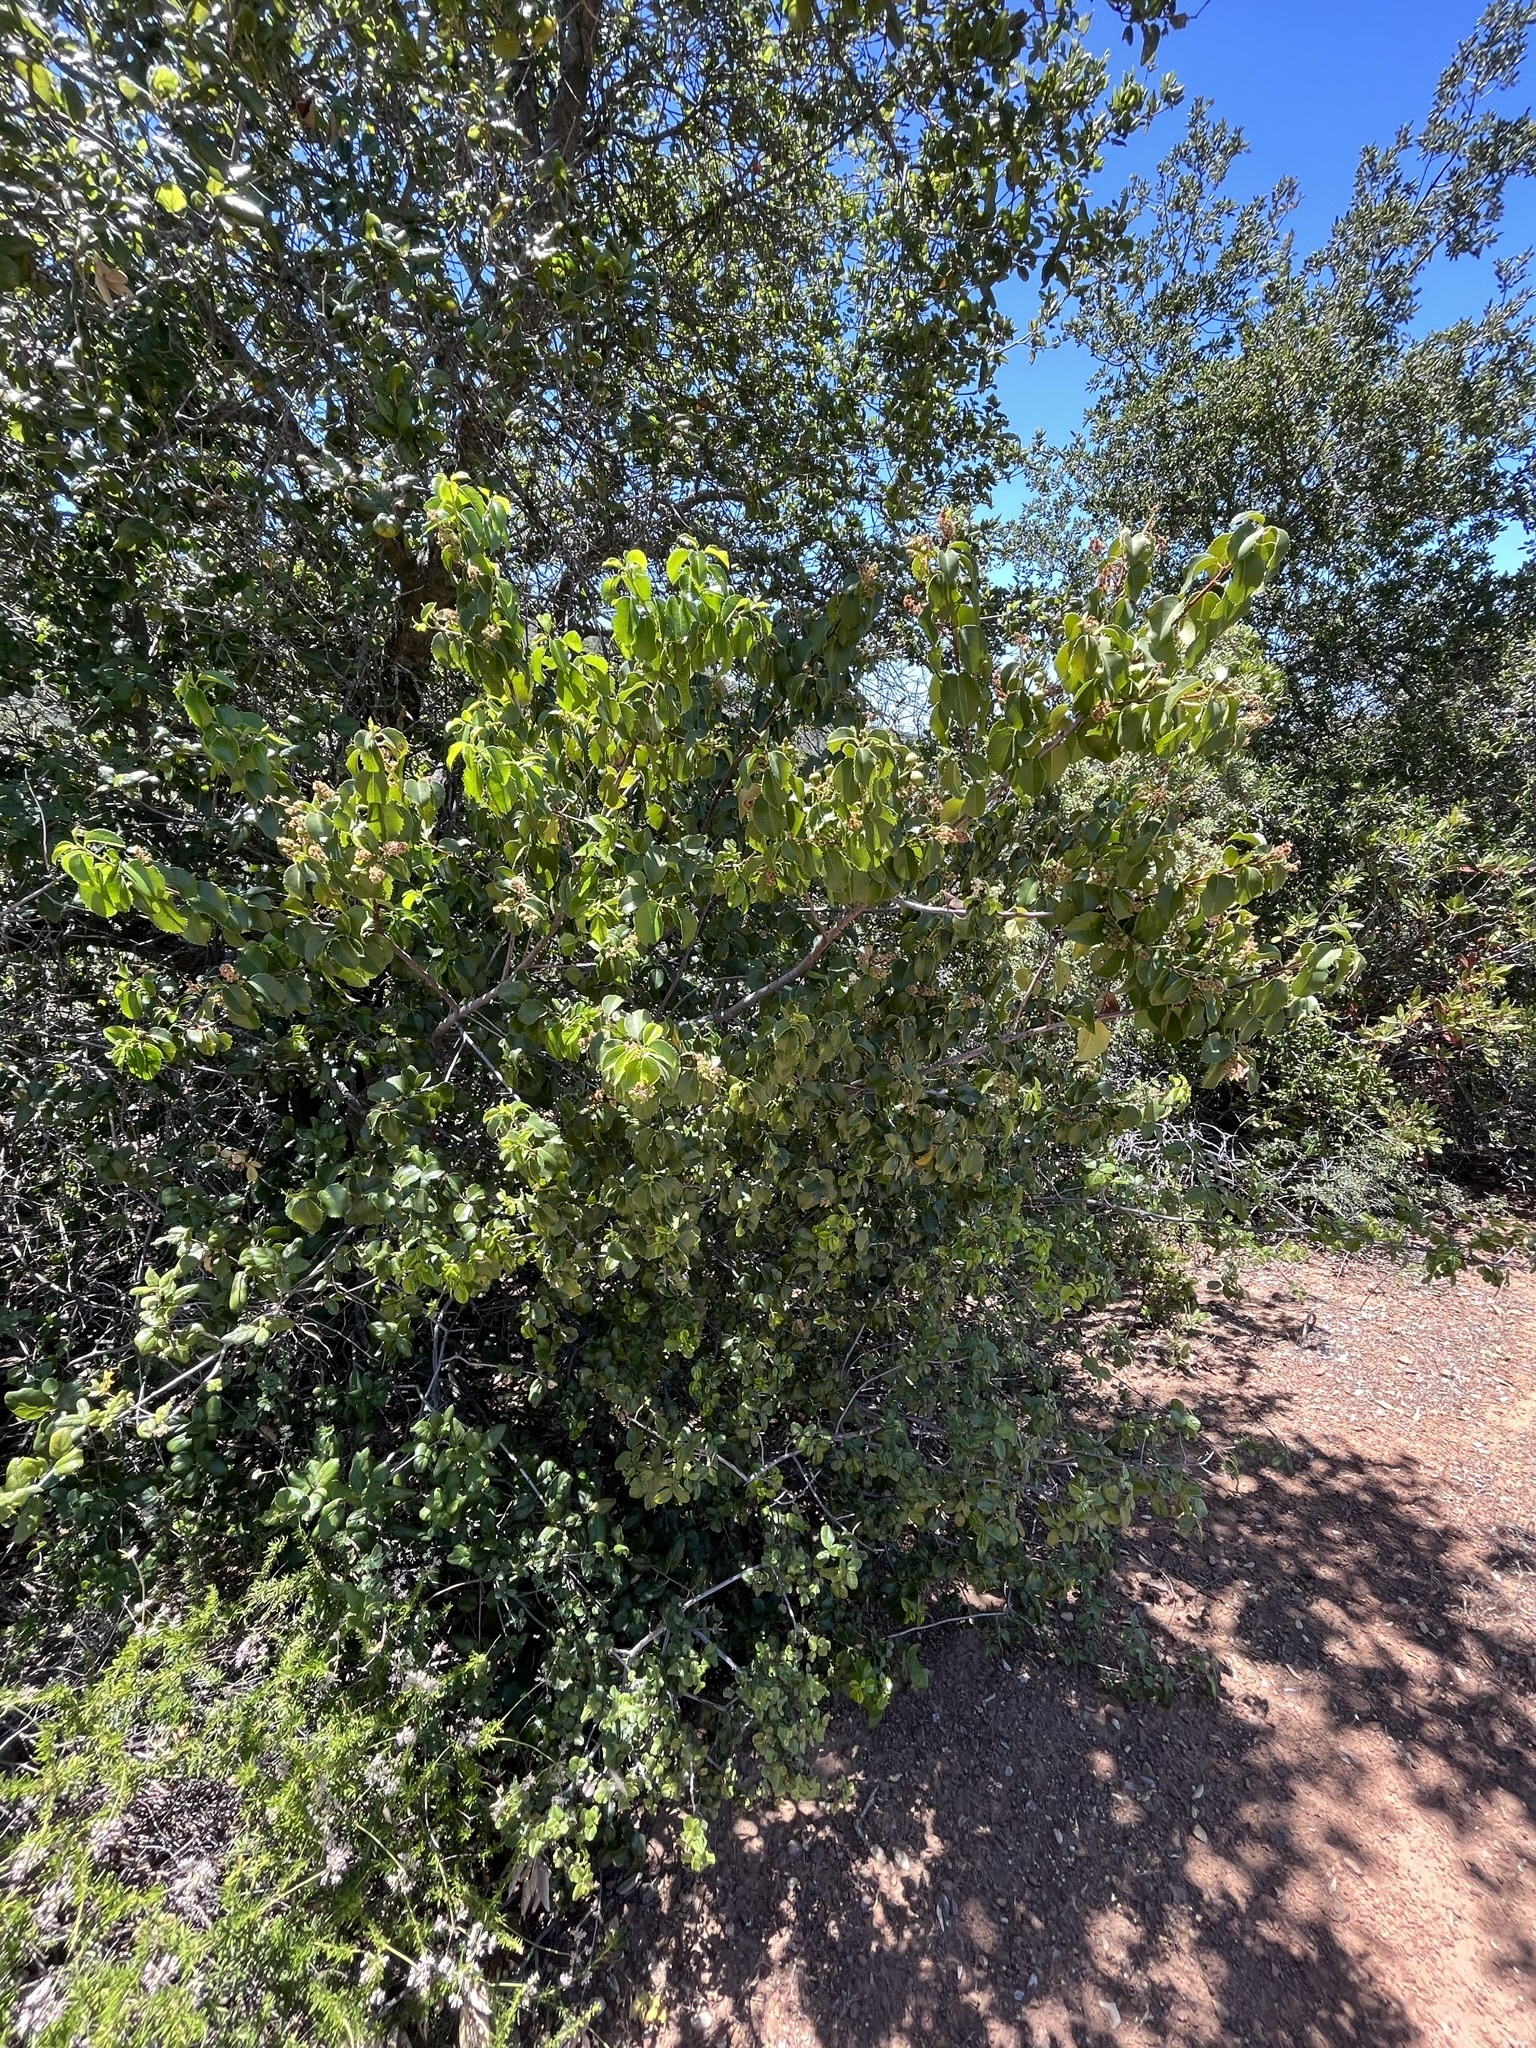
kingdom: Plantae
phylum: Tracheophyta
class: Magnoliopsida
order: Rosales
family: Rosaceae
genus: Prunus
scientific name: Prunus ilicifolia
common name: Hollyleaf cherry
